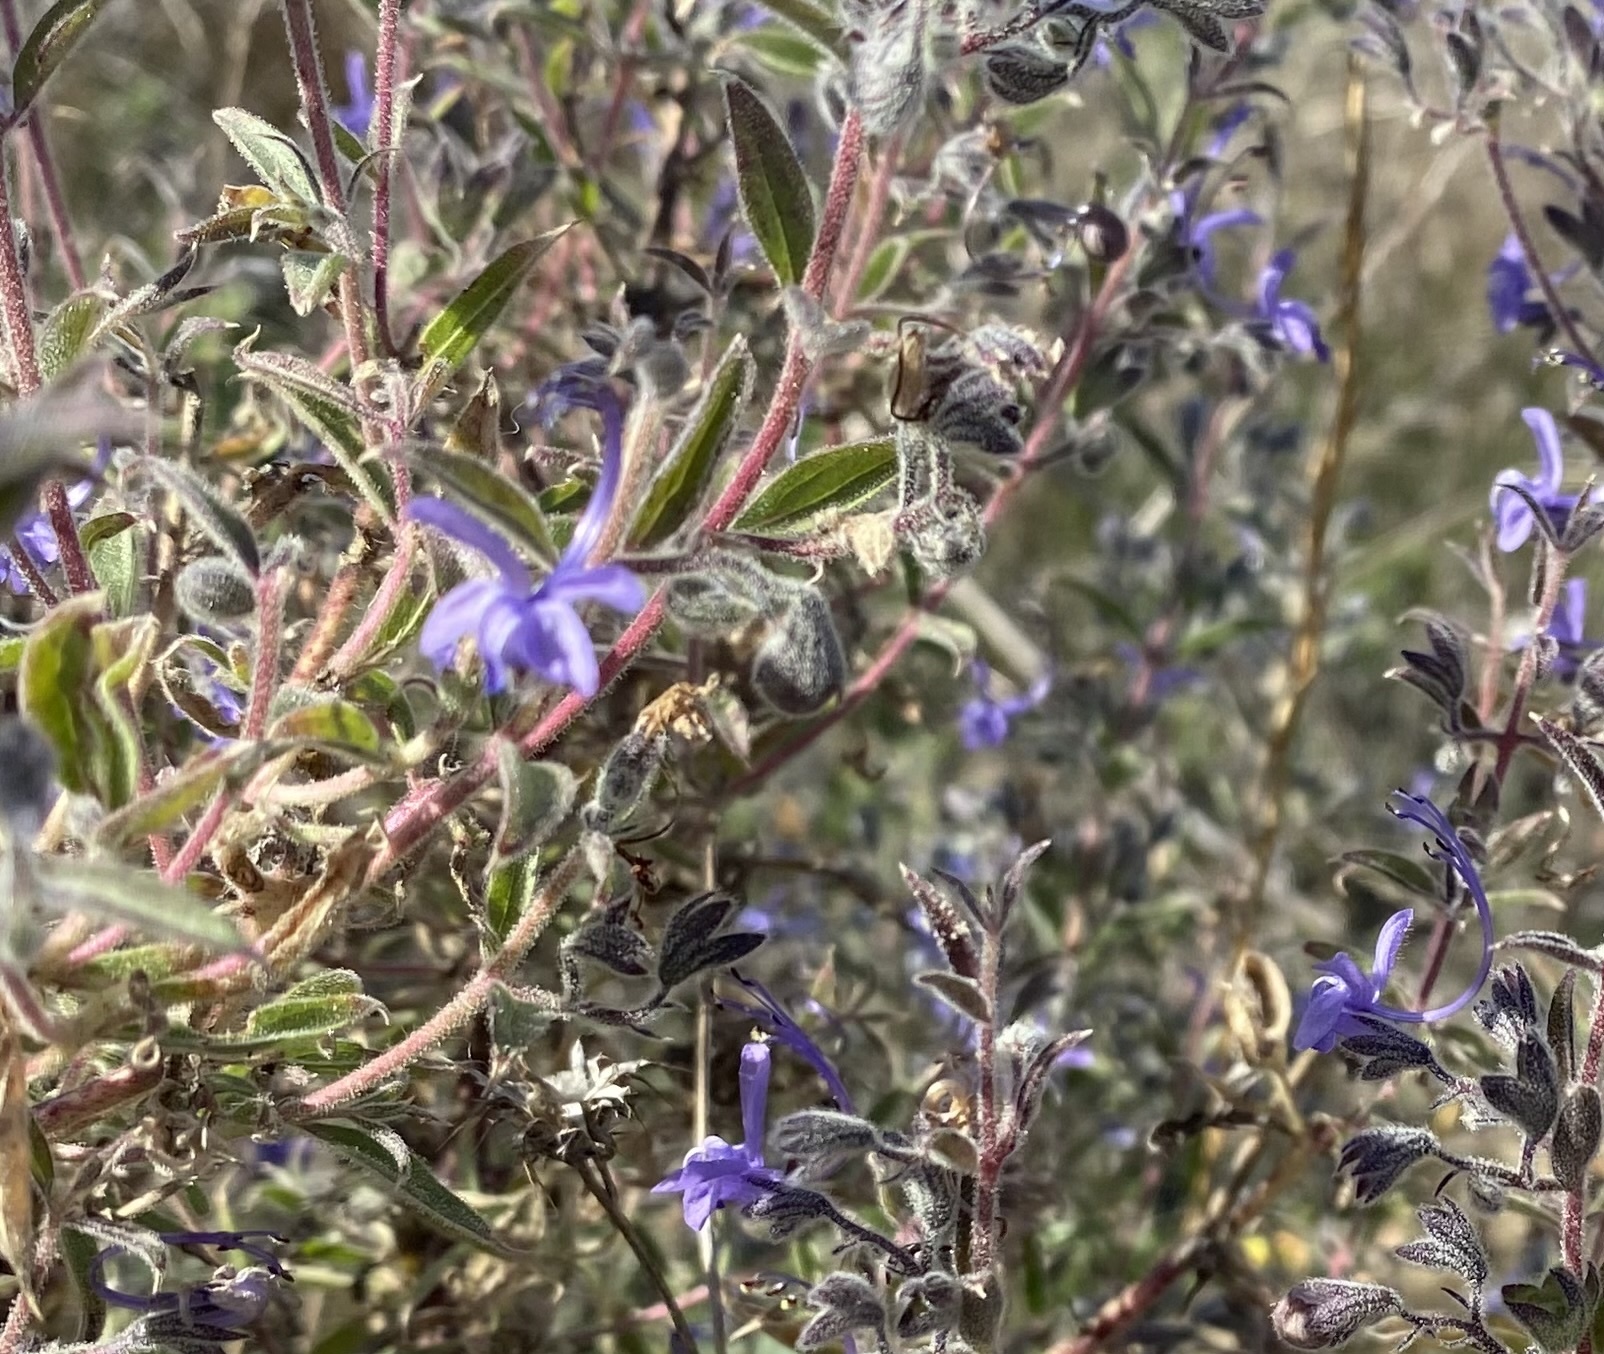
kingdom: Plantae
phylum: Tracheophyta
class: Magnoliopsida
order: Lamiales
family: Lamiaceae
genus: Trichostema
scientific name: Trichostema lanceolatum
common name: Vinegar-weed
